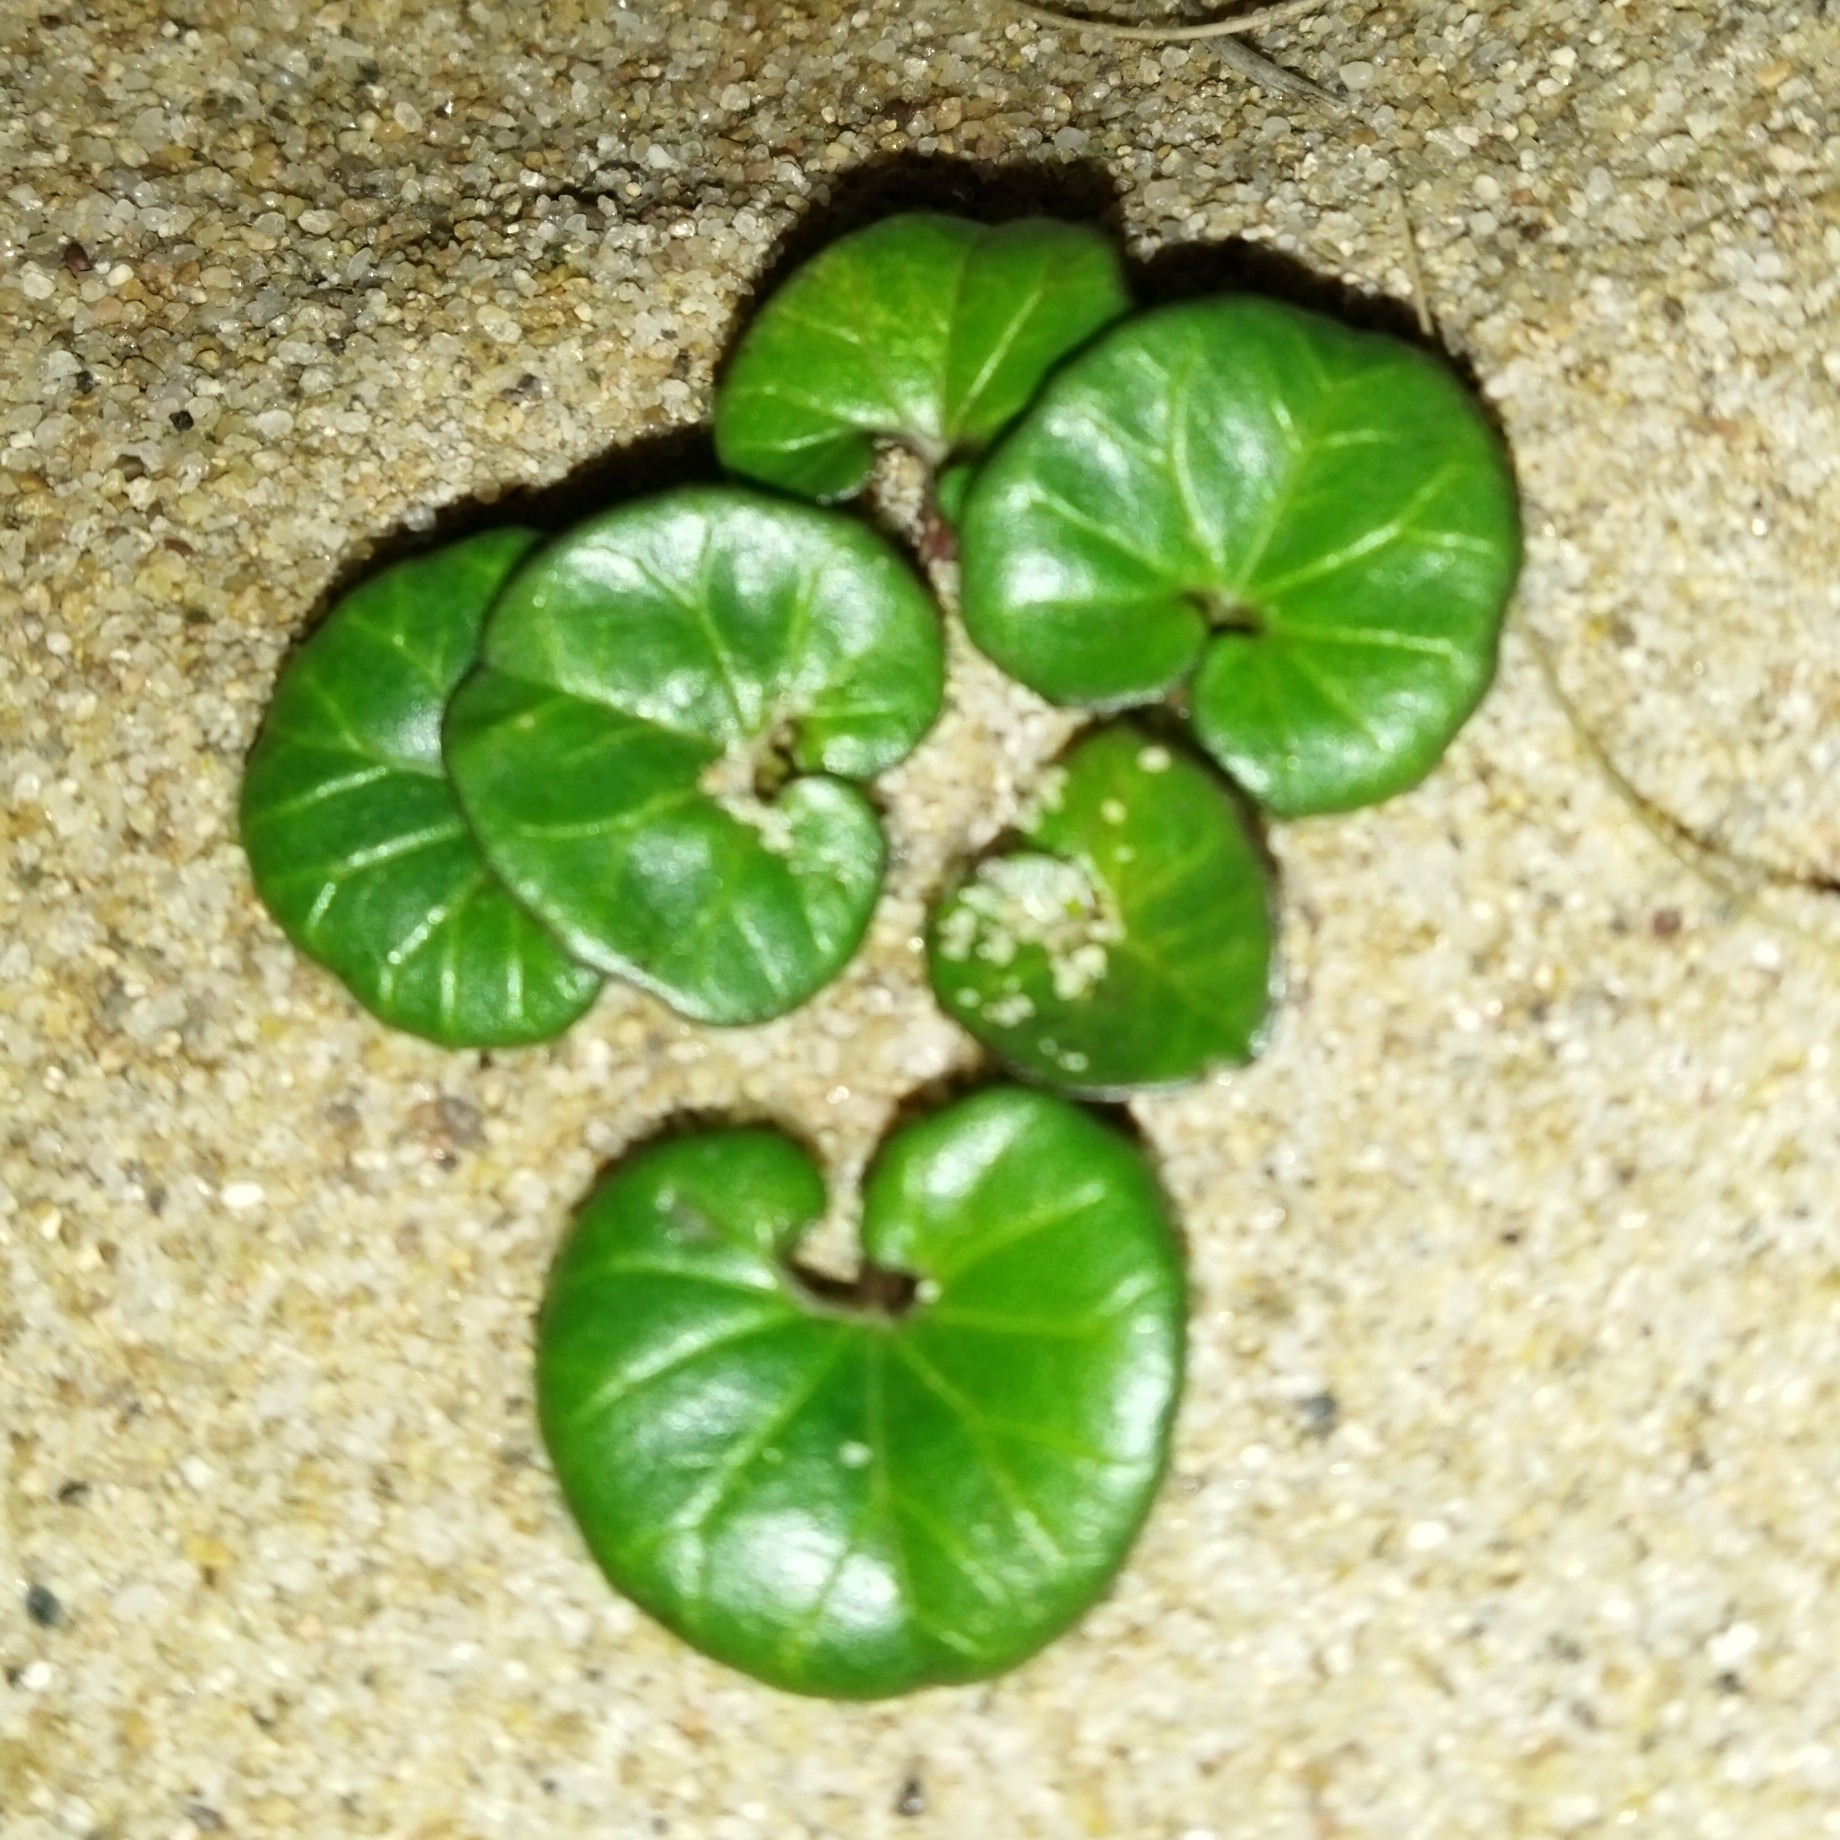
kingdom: Plantae
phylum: Tracheophyta
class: Magnoliopsida
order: Solanales
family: Convolvulaceae
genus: Calystegia
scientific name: Calystegia soldanella
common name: Sea bindweed
